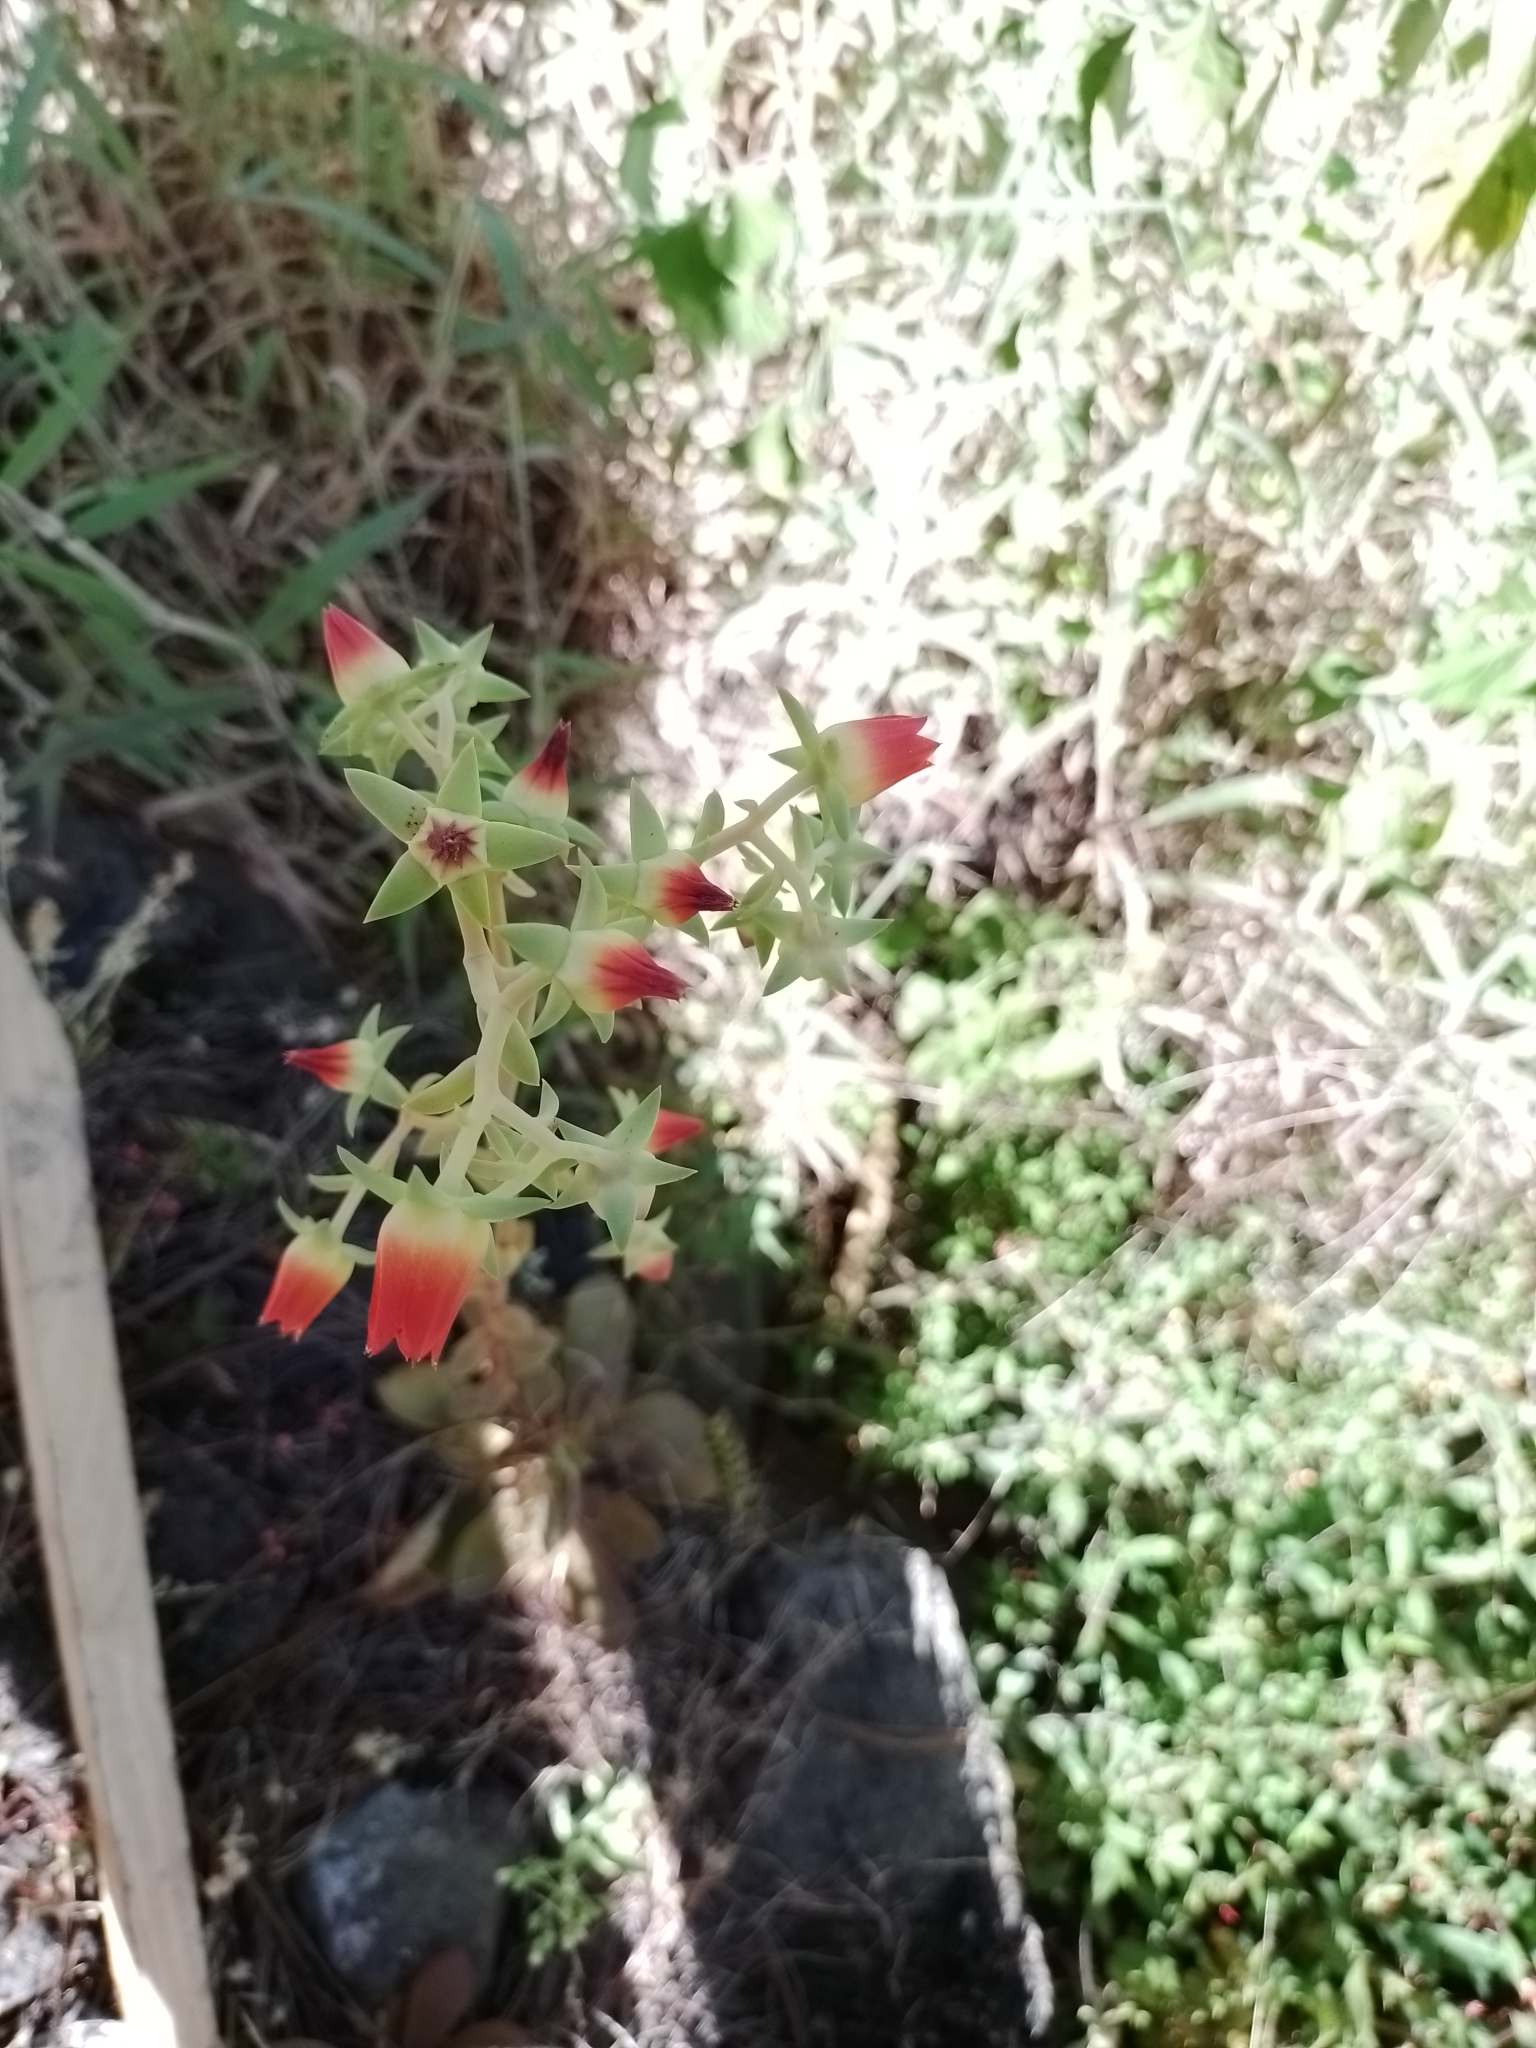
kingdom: Plantae
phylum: Tracheophyta
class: Magnoliopsida
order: Saxifragales
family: Crassulaceae
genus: Echeveria
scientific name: Echeveria coruana
